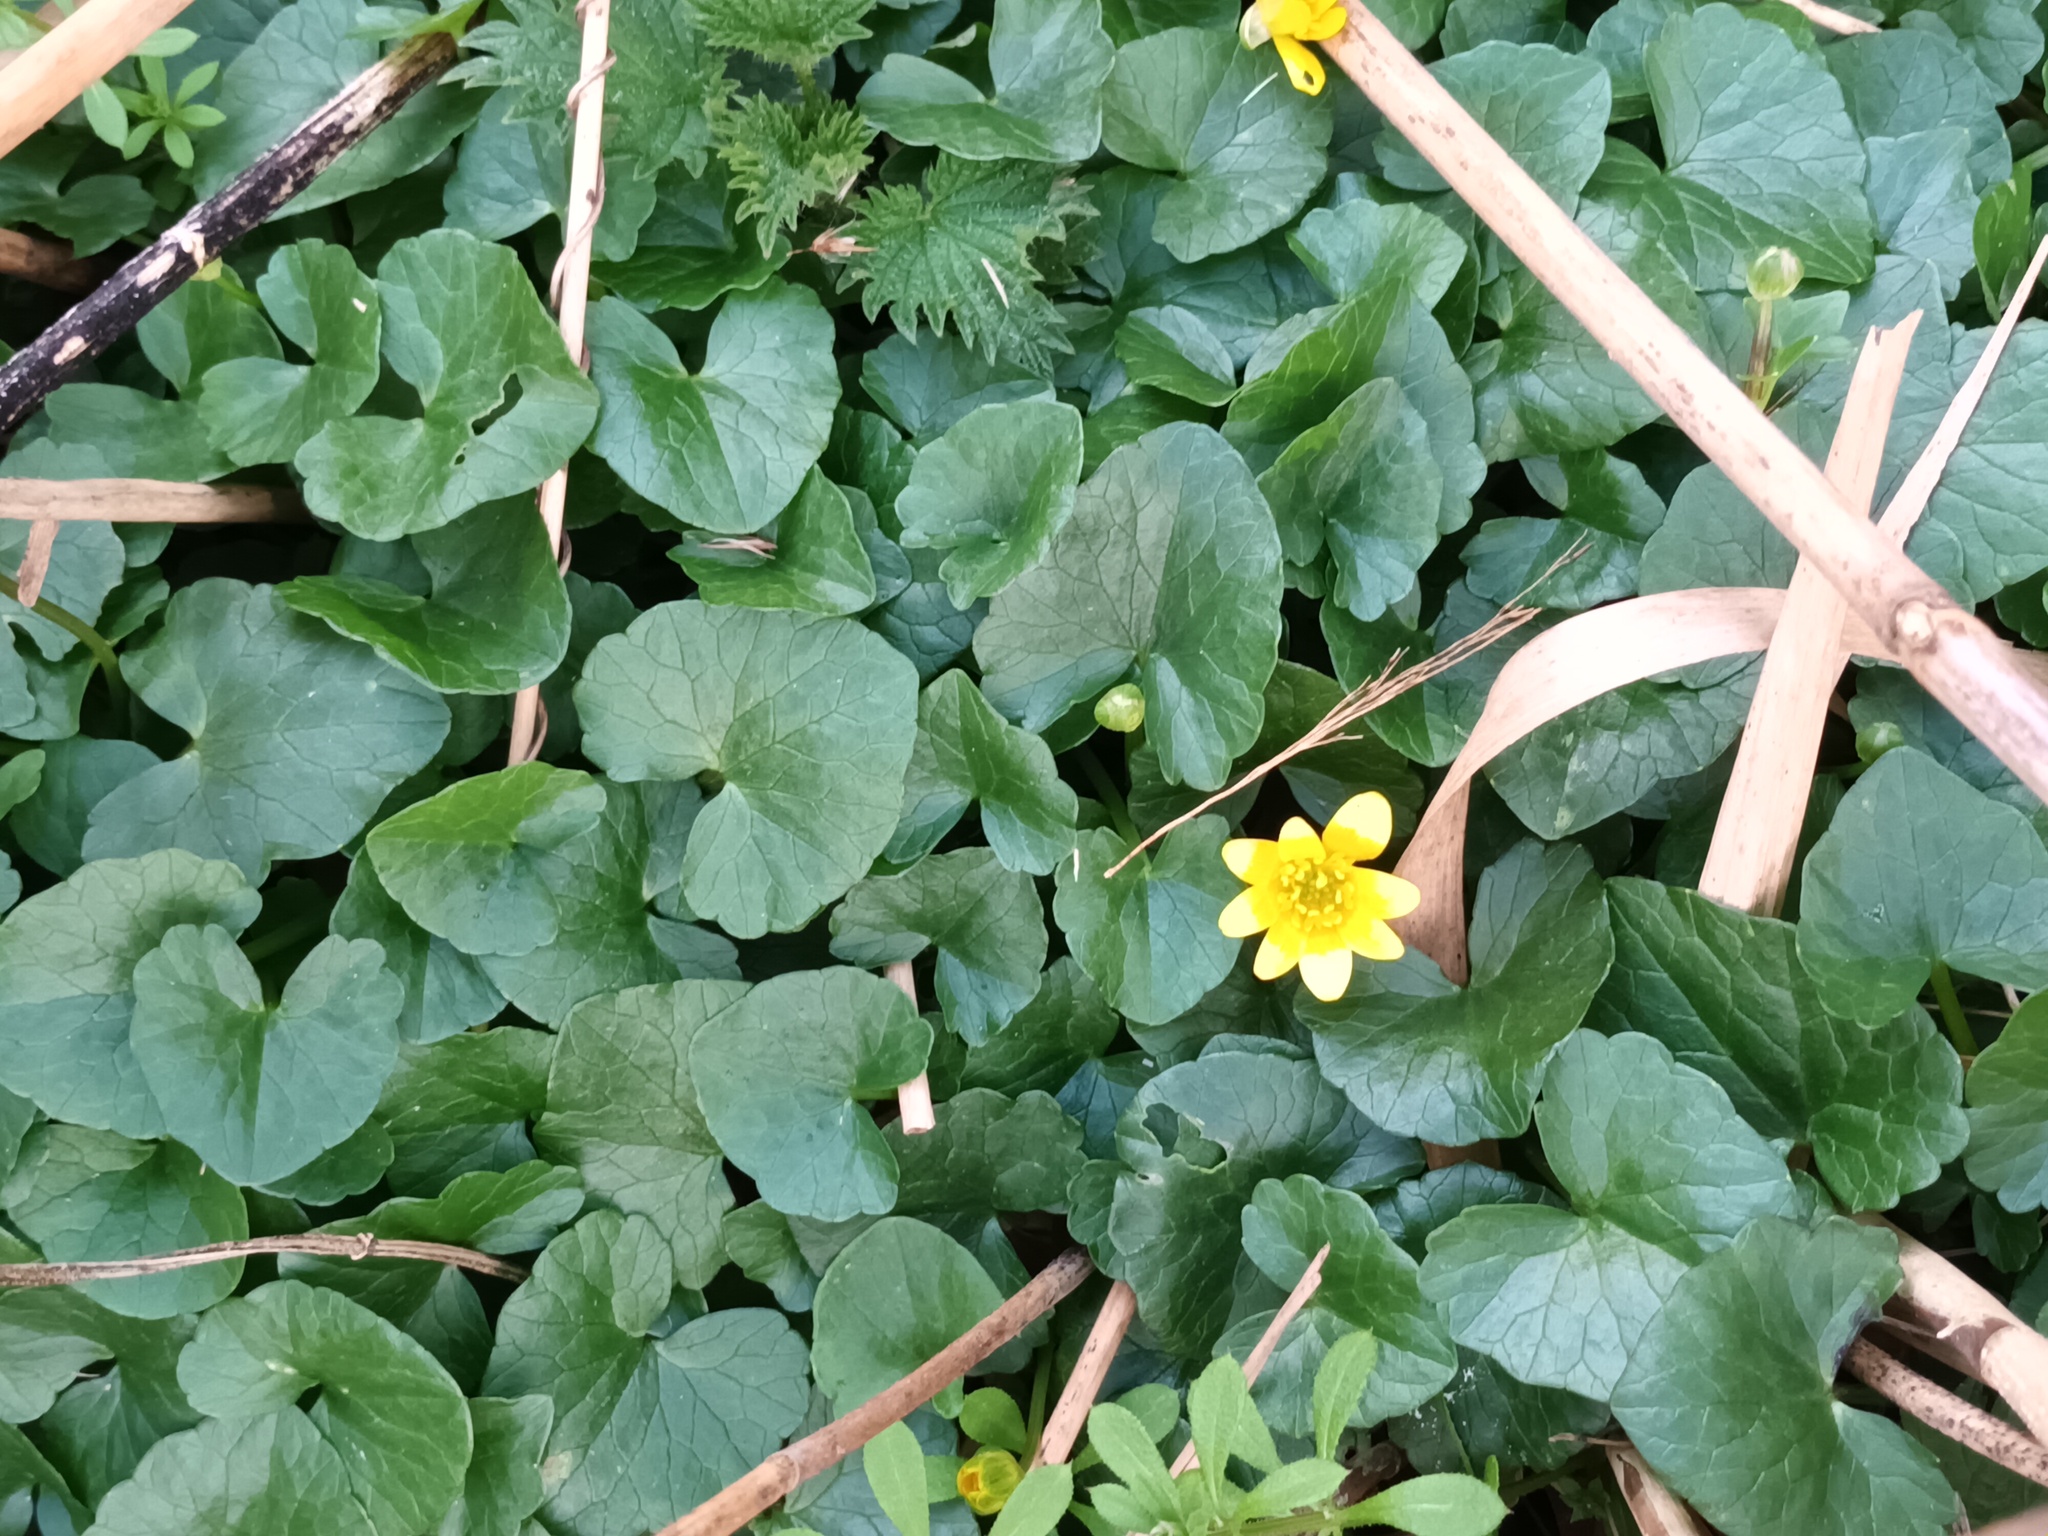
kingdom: Plantae
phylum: Tracheophyta
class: Magnoliopsida
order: Ranunculales
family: Ranunculaceae
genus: Ficaria
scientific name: Ficaria verna
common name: Lesser celandine
